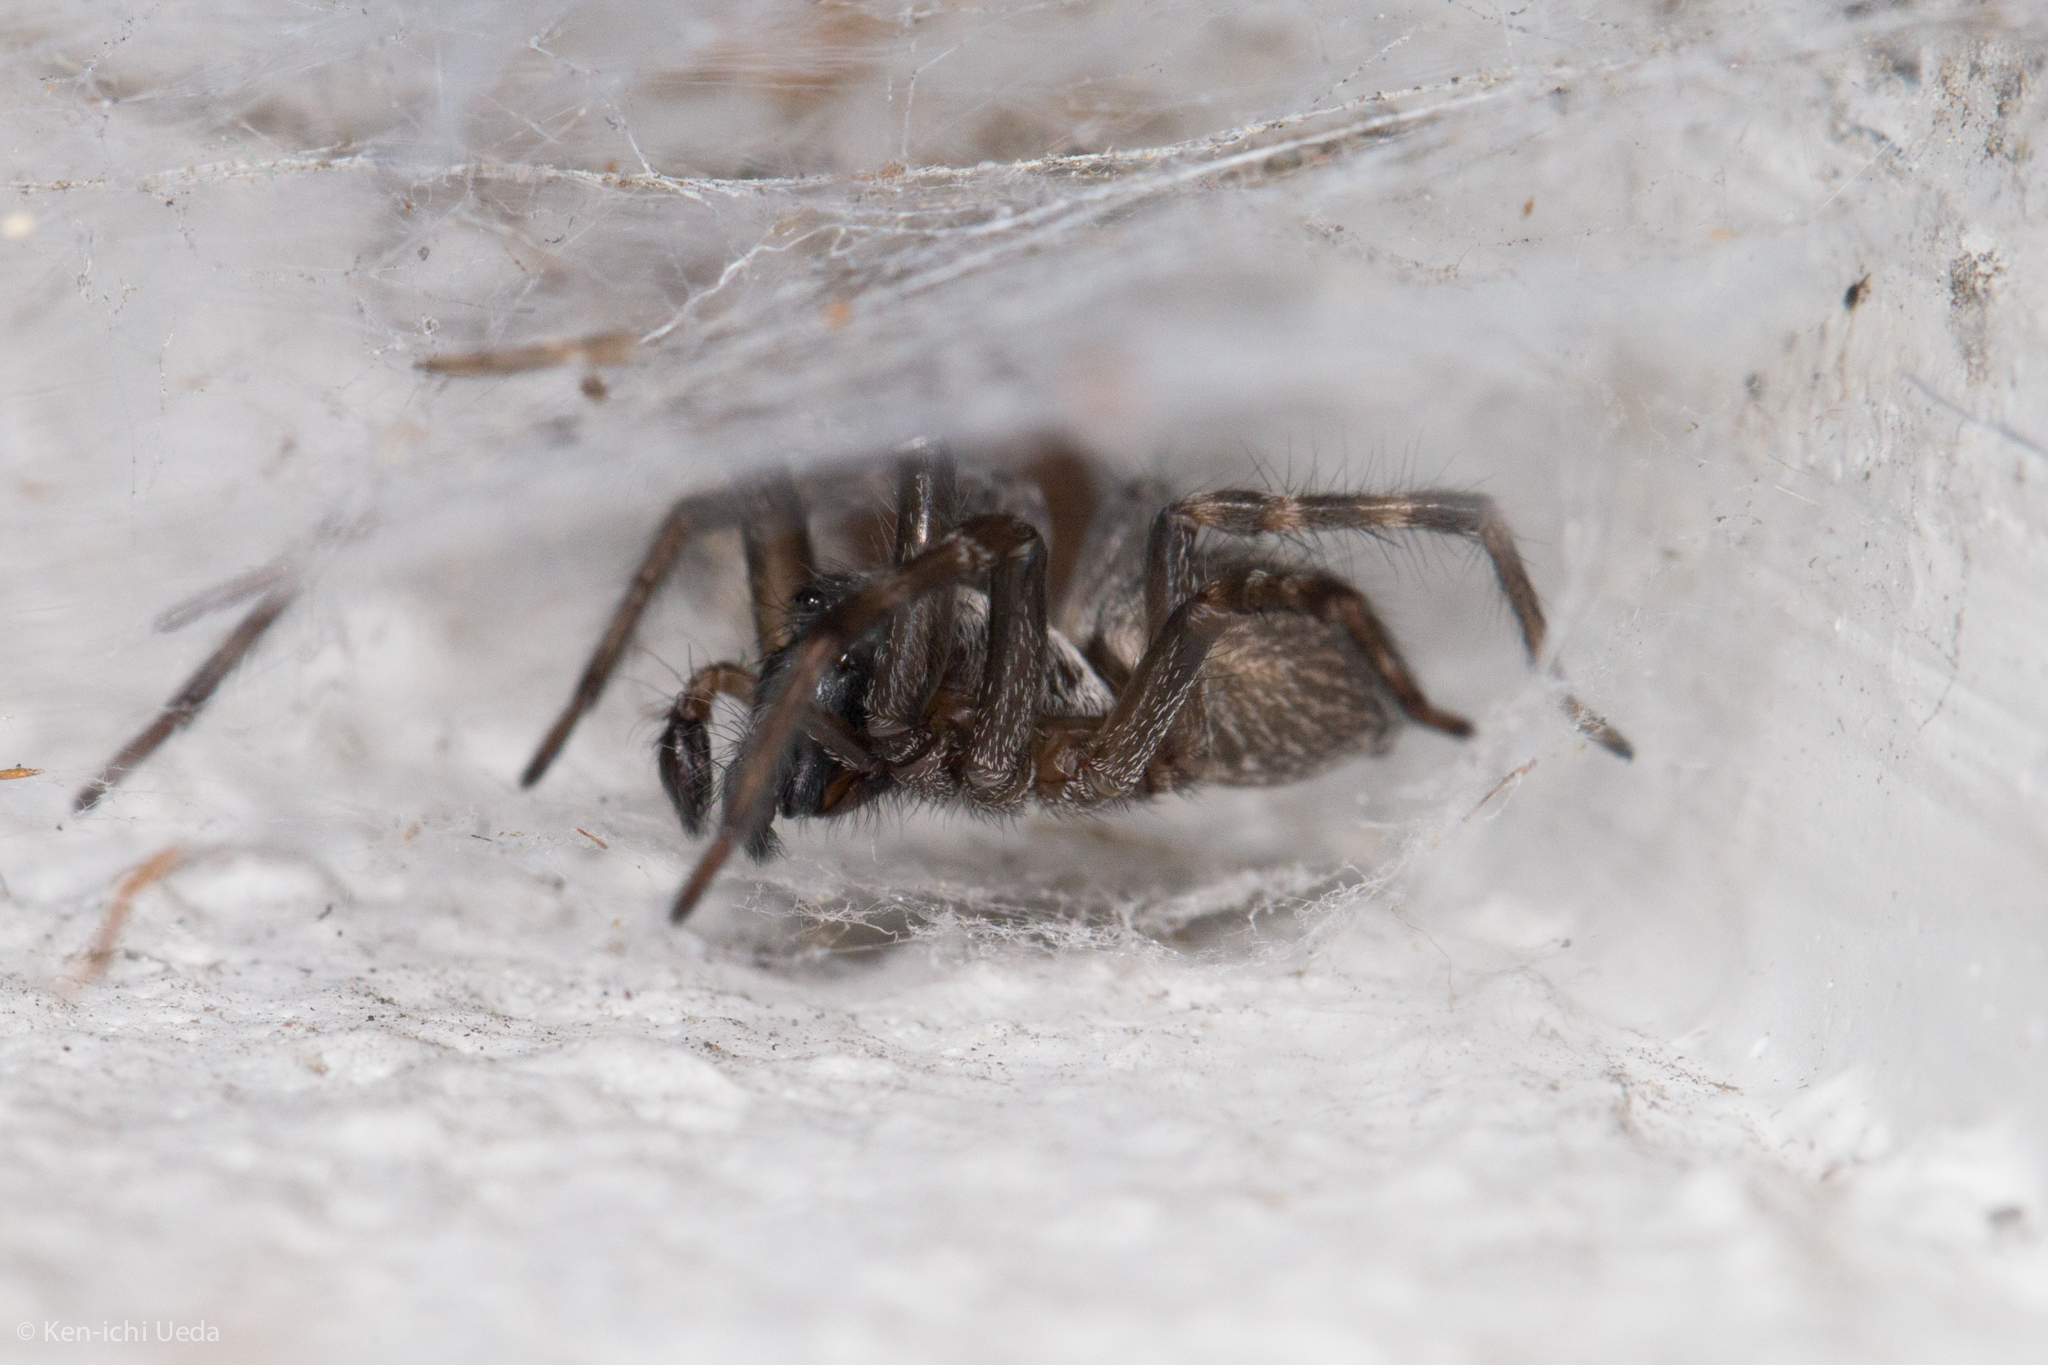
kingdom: Animalia
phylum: Arthropoda
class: Arachnida
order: Araneae
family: Desidae
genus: Badumna
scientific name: Badumna longinqua
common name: Gray house spider
